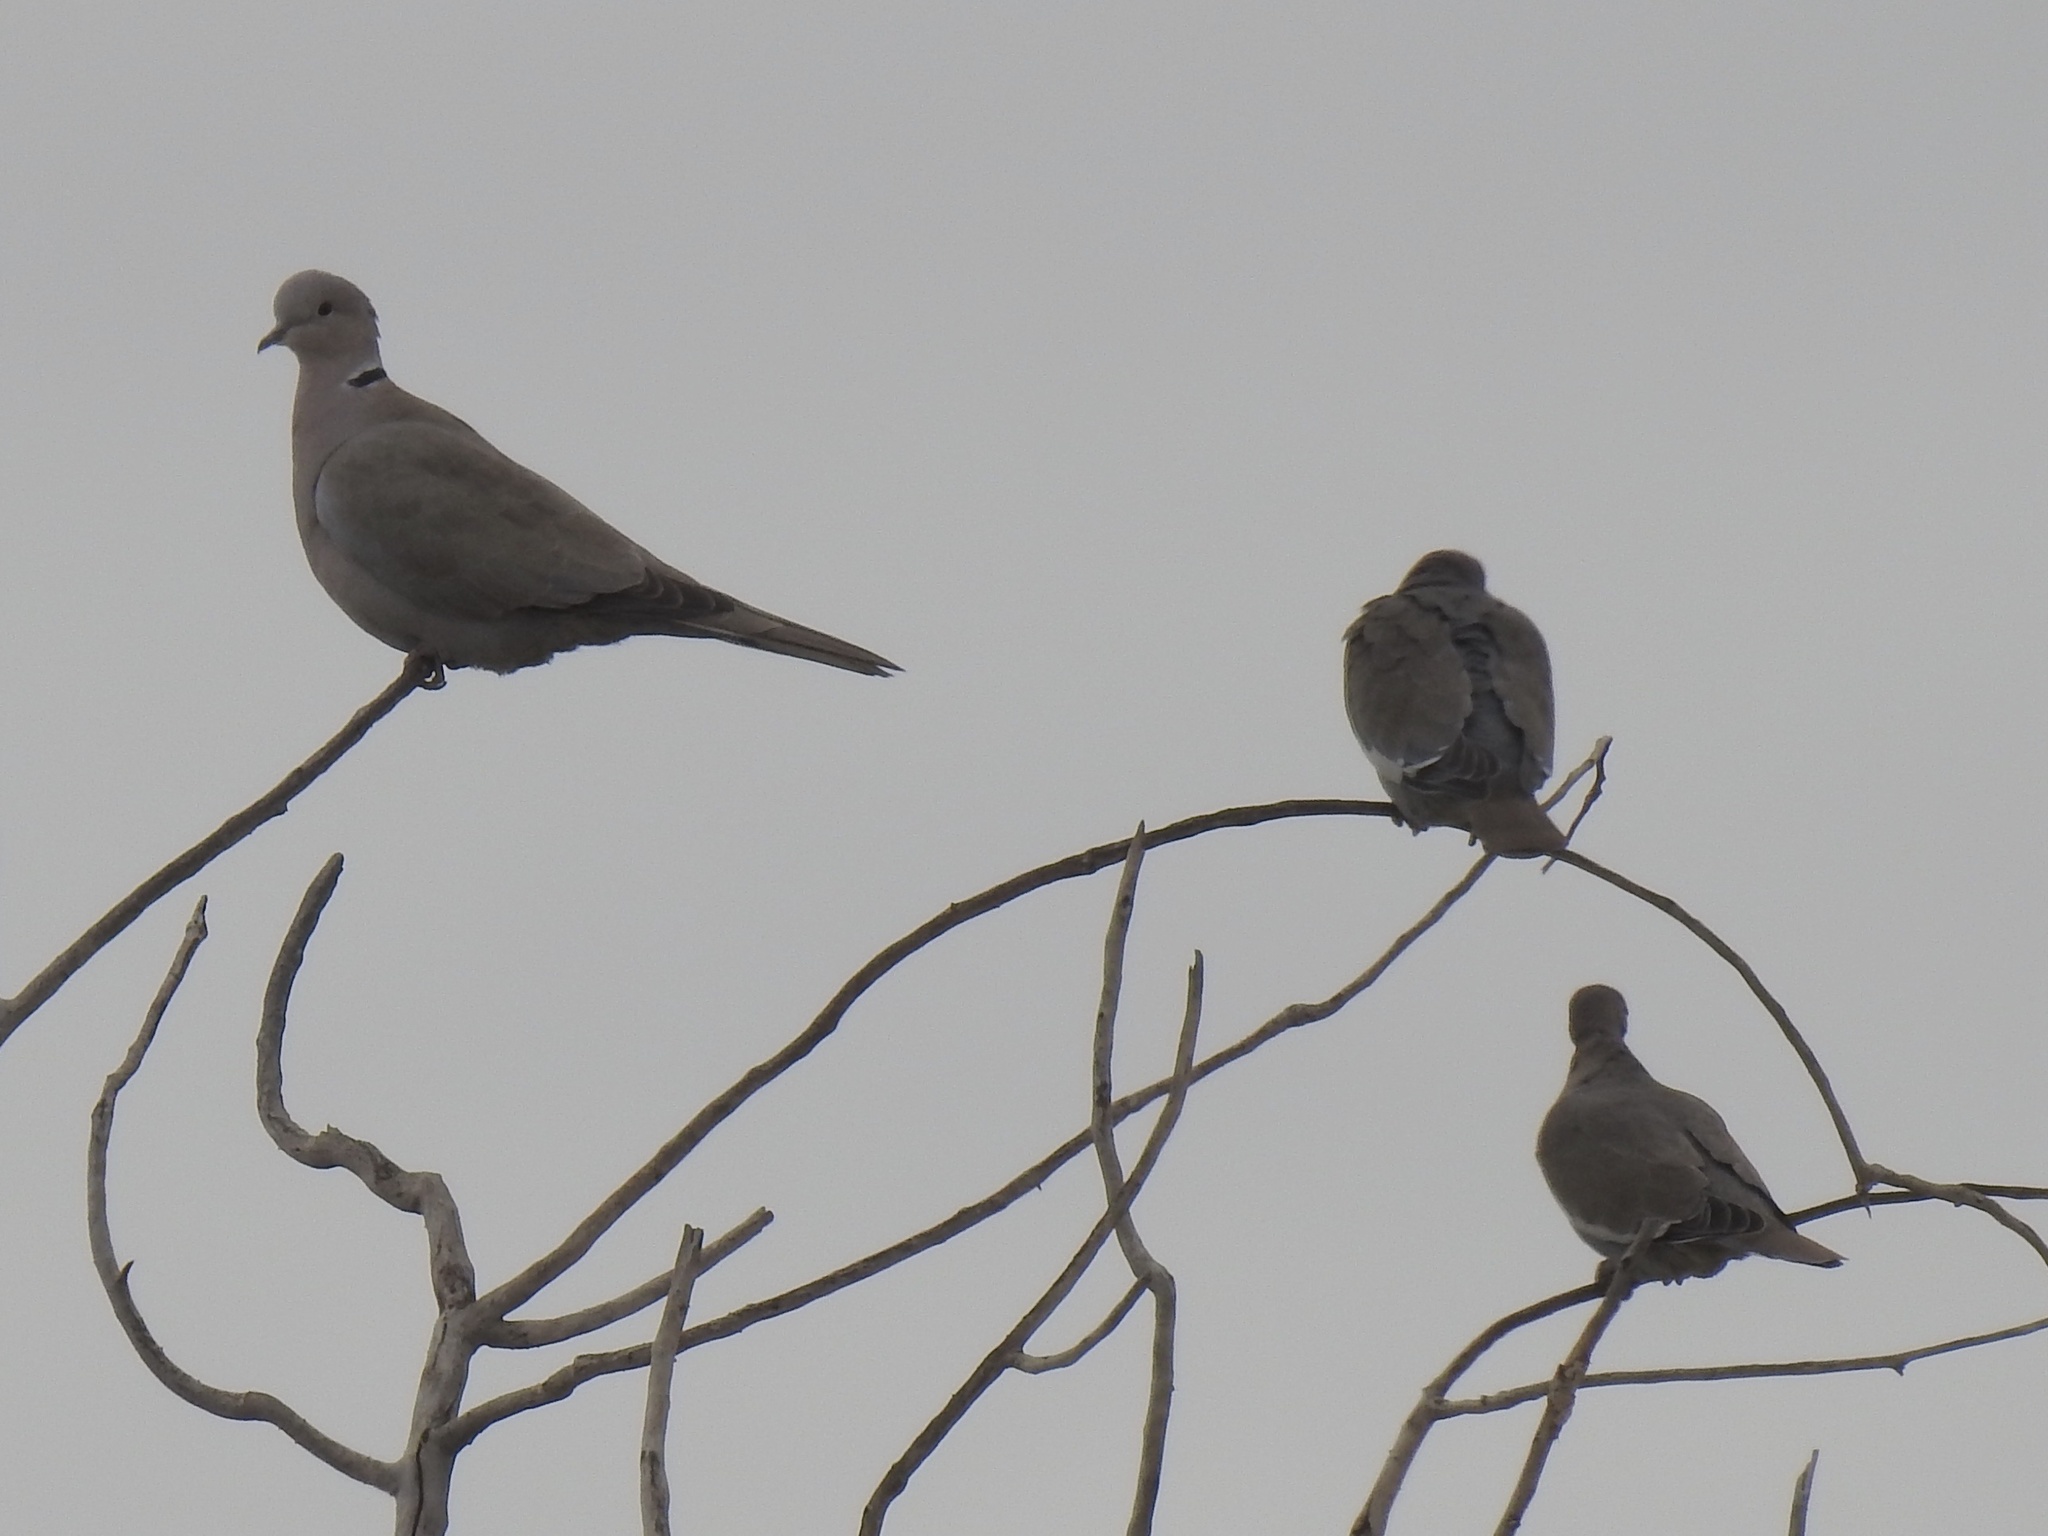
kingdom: Animalia
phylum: Chordata
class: Aves
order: Columbiformes
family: Columbidae
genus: Zenaida
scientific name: Zenaida asiatica
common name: White-winged dove
